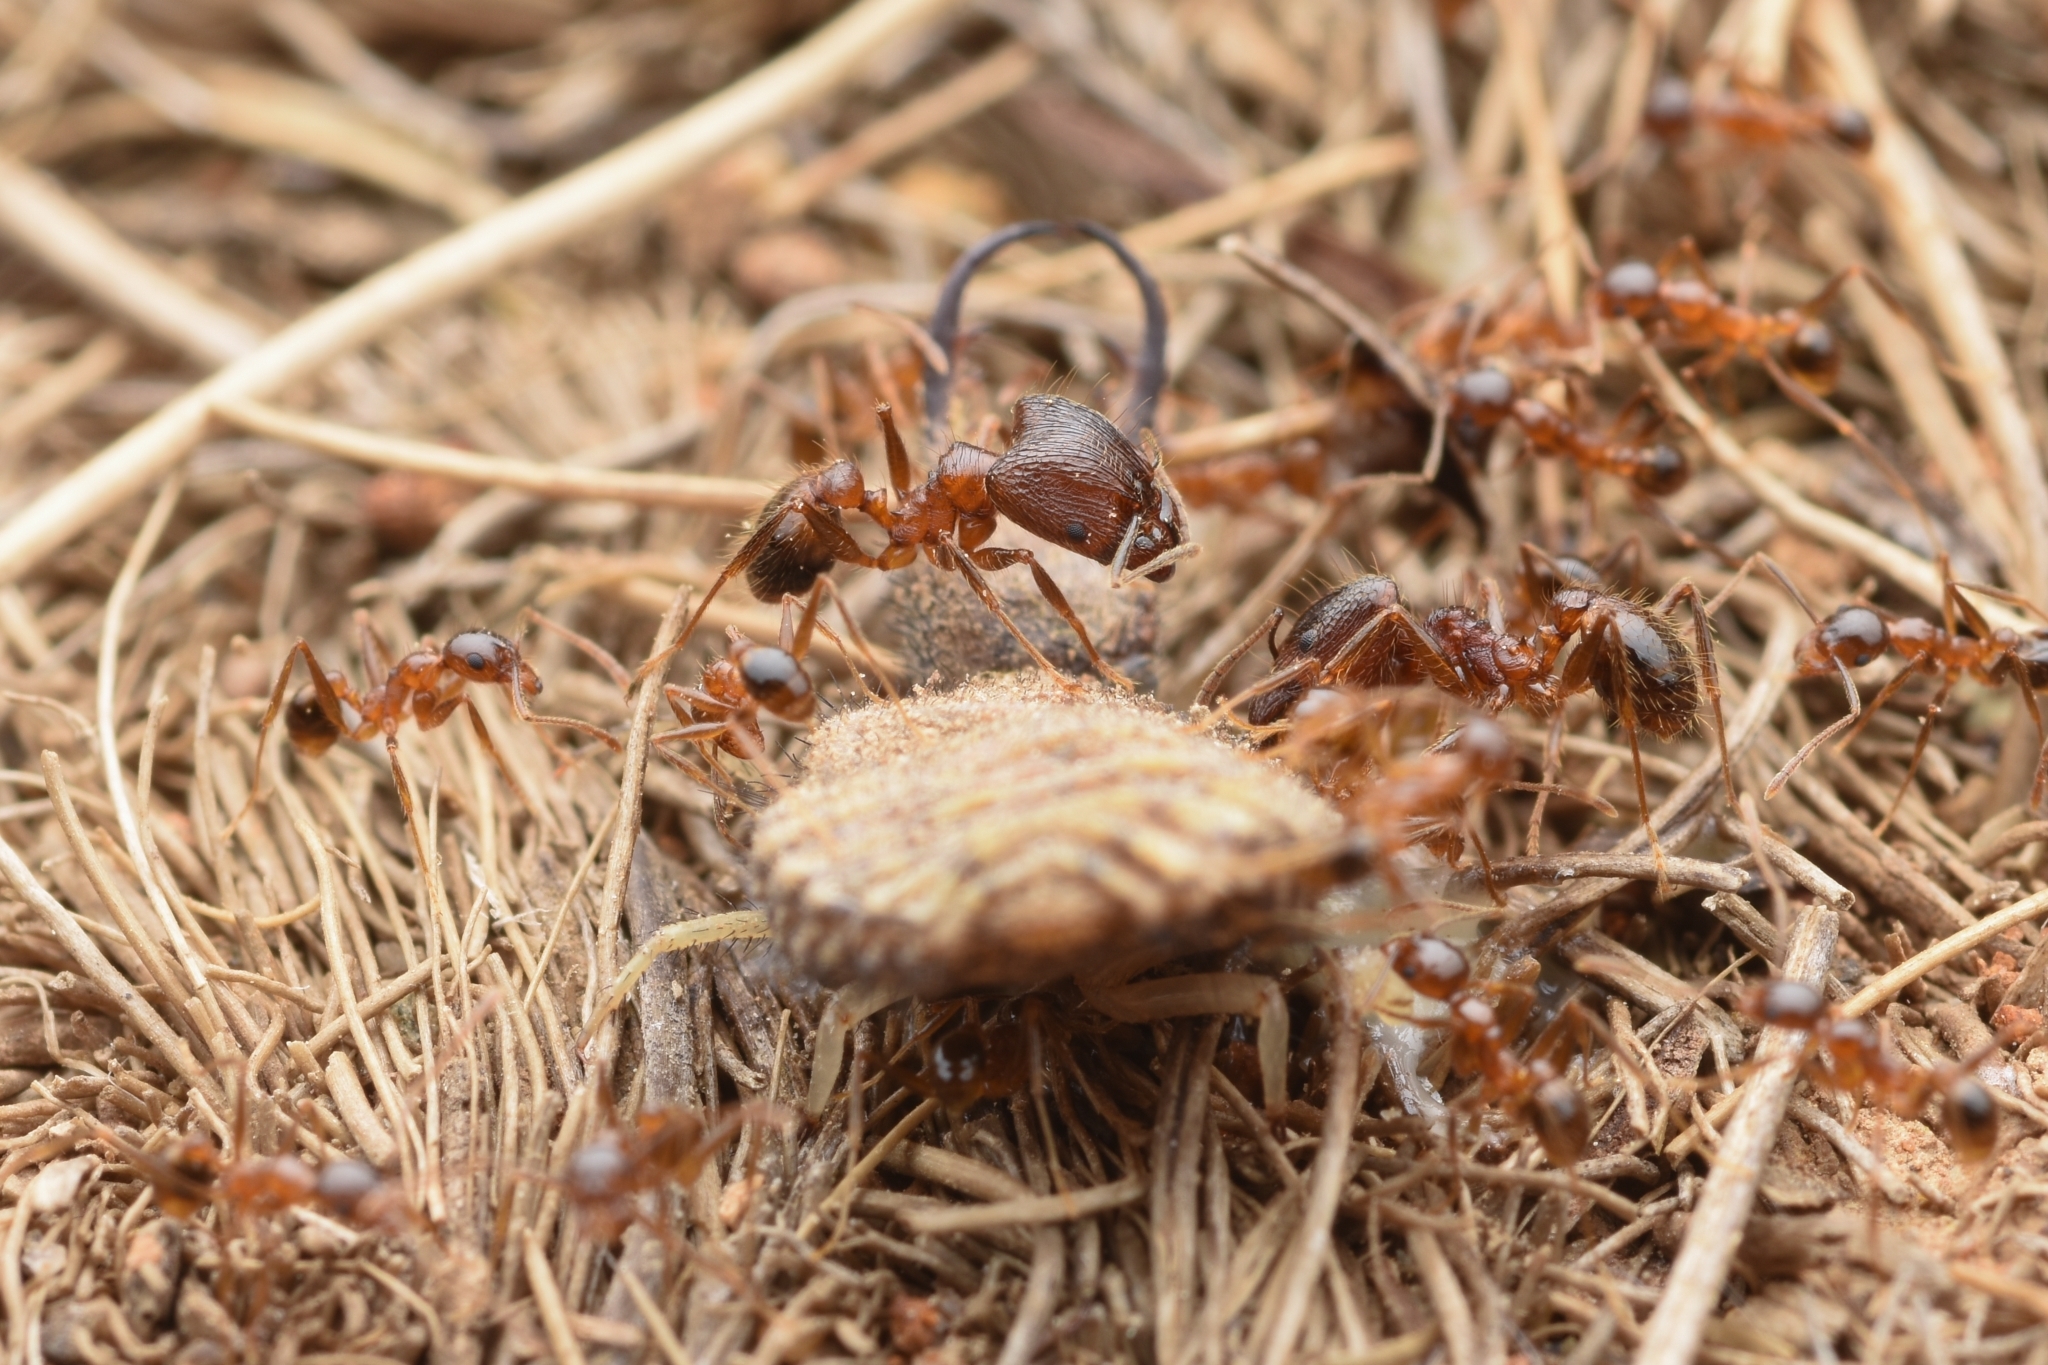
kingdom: Animalia
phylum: Arthropoda
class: Insecta
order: Hymenoptera
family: Formicidae
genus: Pheidole
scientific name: Pheidole noda
